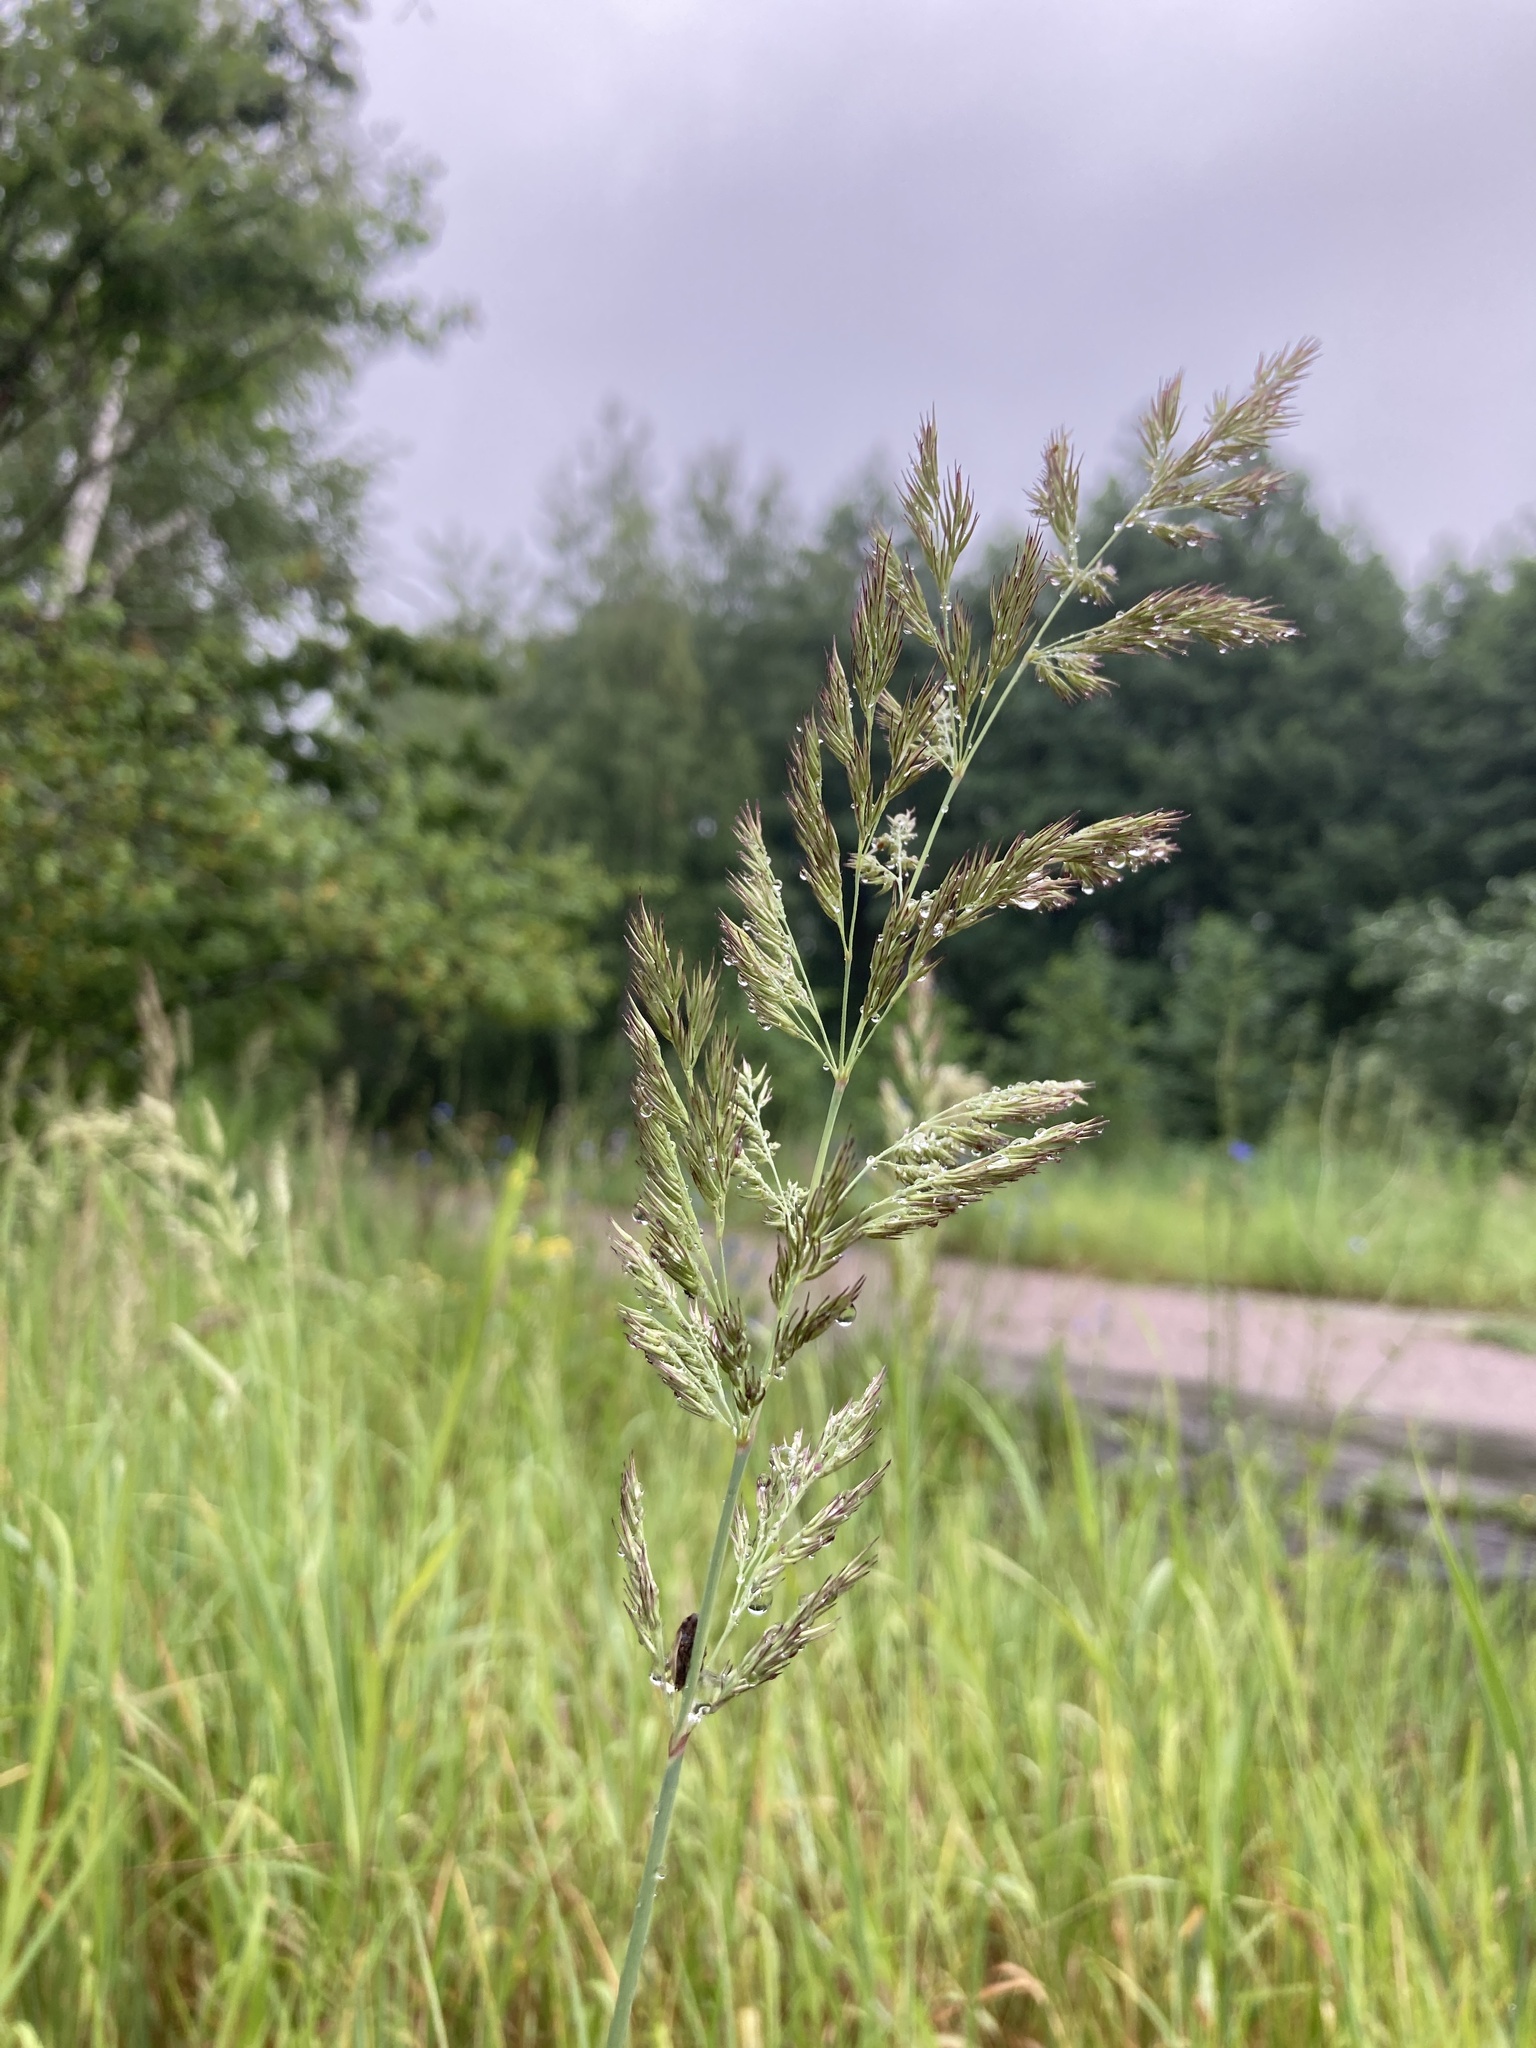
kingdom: Plantae
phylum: Tracheophyta
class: Liliopsida
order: Poales
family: Poaceae
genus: Calamagrostis
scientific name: Calamagrostis epigejos
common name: Wood small-reed
